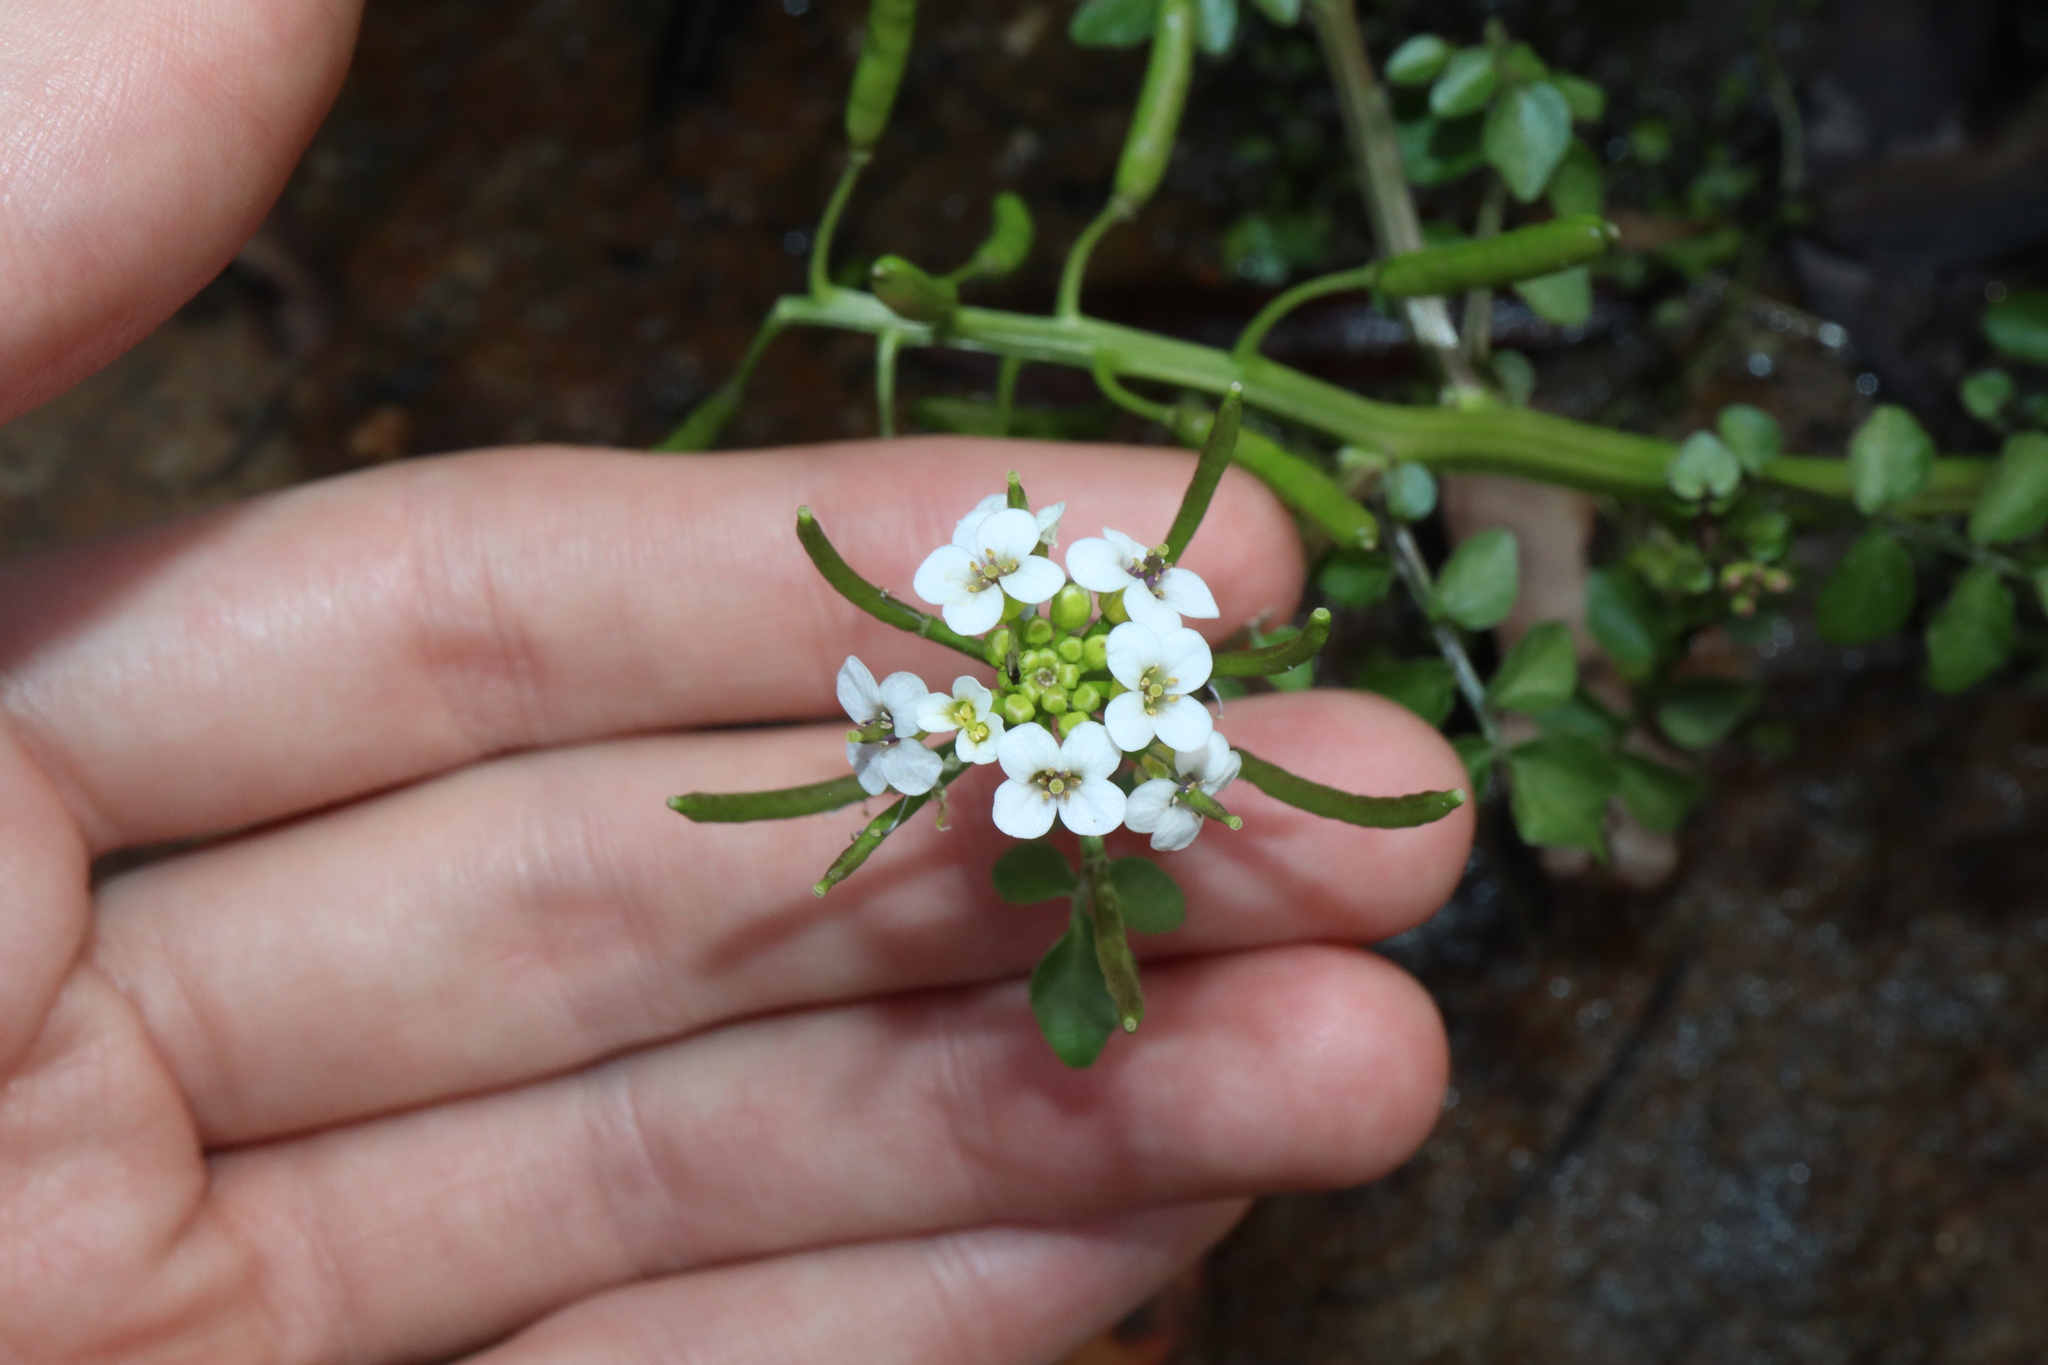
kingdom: Plantae
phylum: Tracheophyta
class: Magnoliopsida
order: Brassicales
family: Brassicaceae
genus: Nasturtium
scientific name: Nasturtium officinale
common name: Watercress
